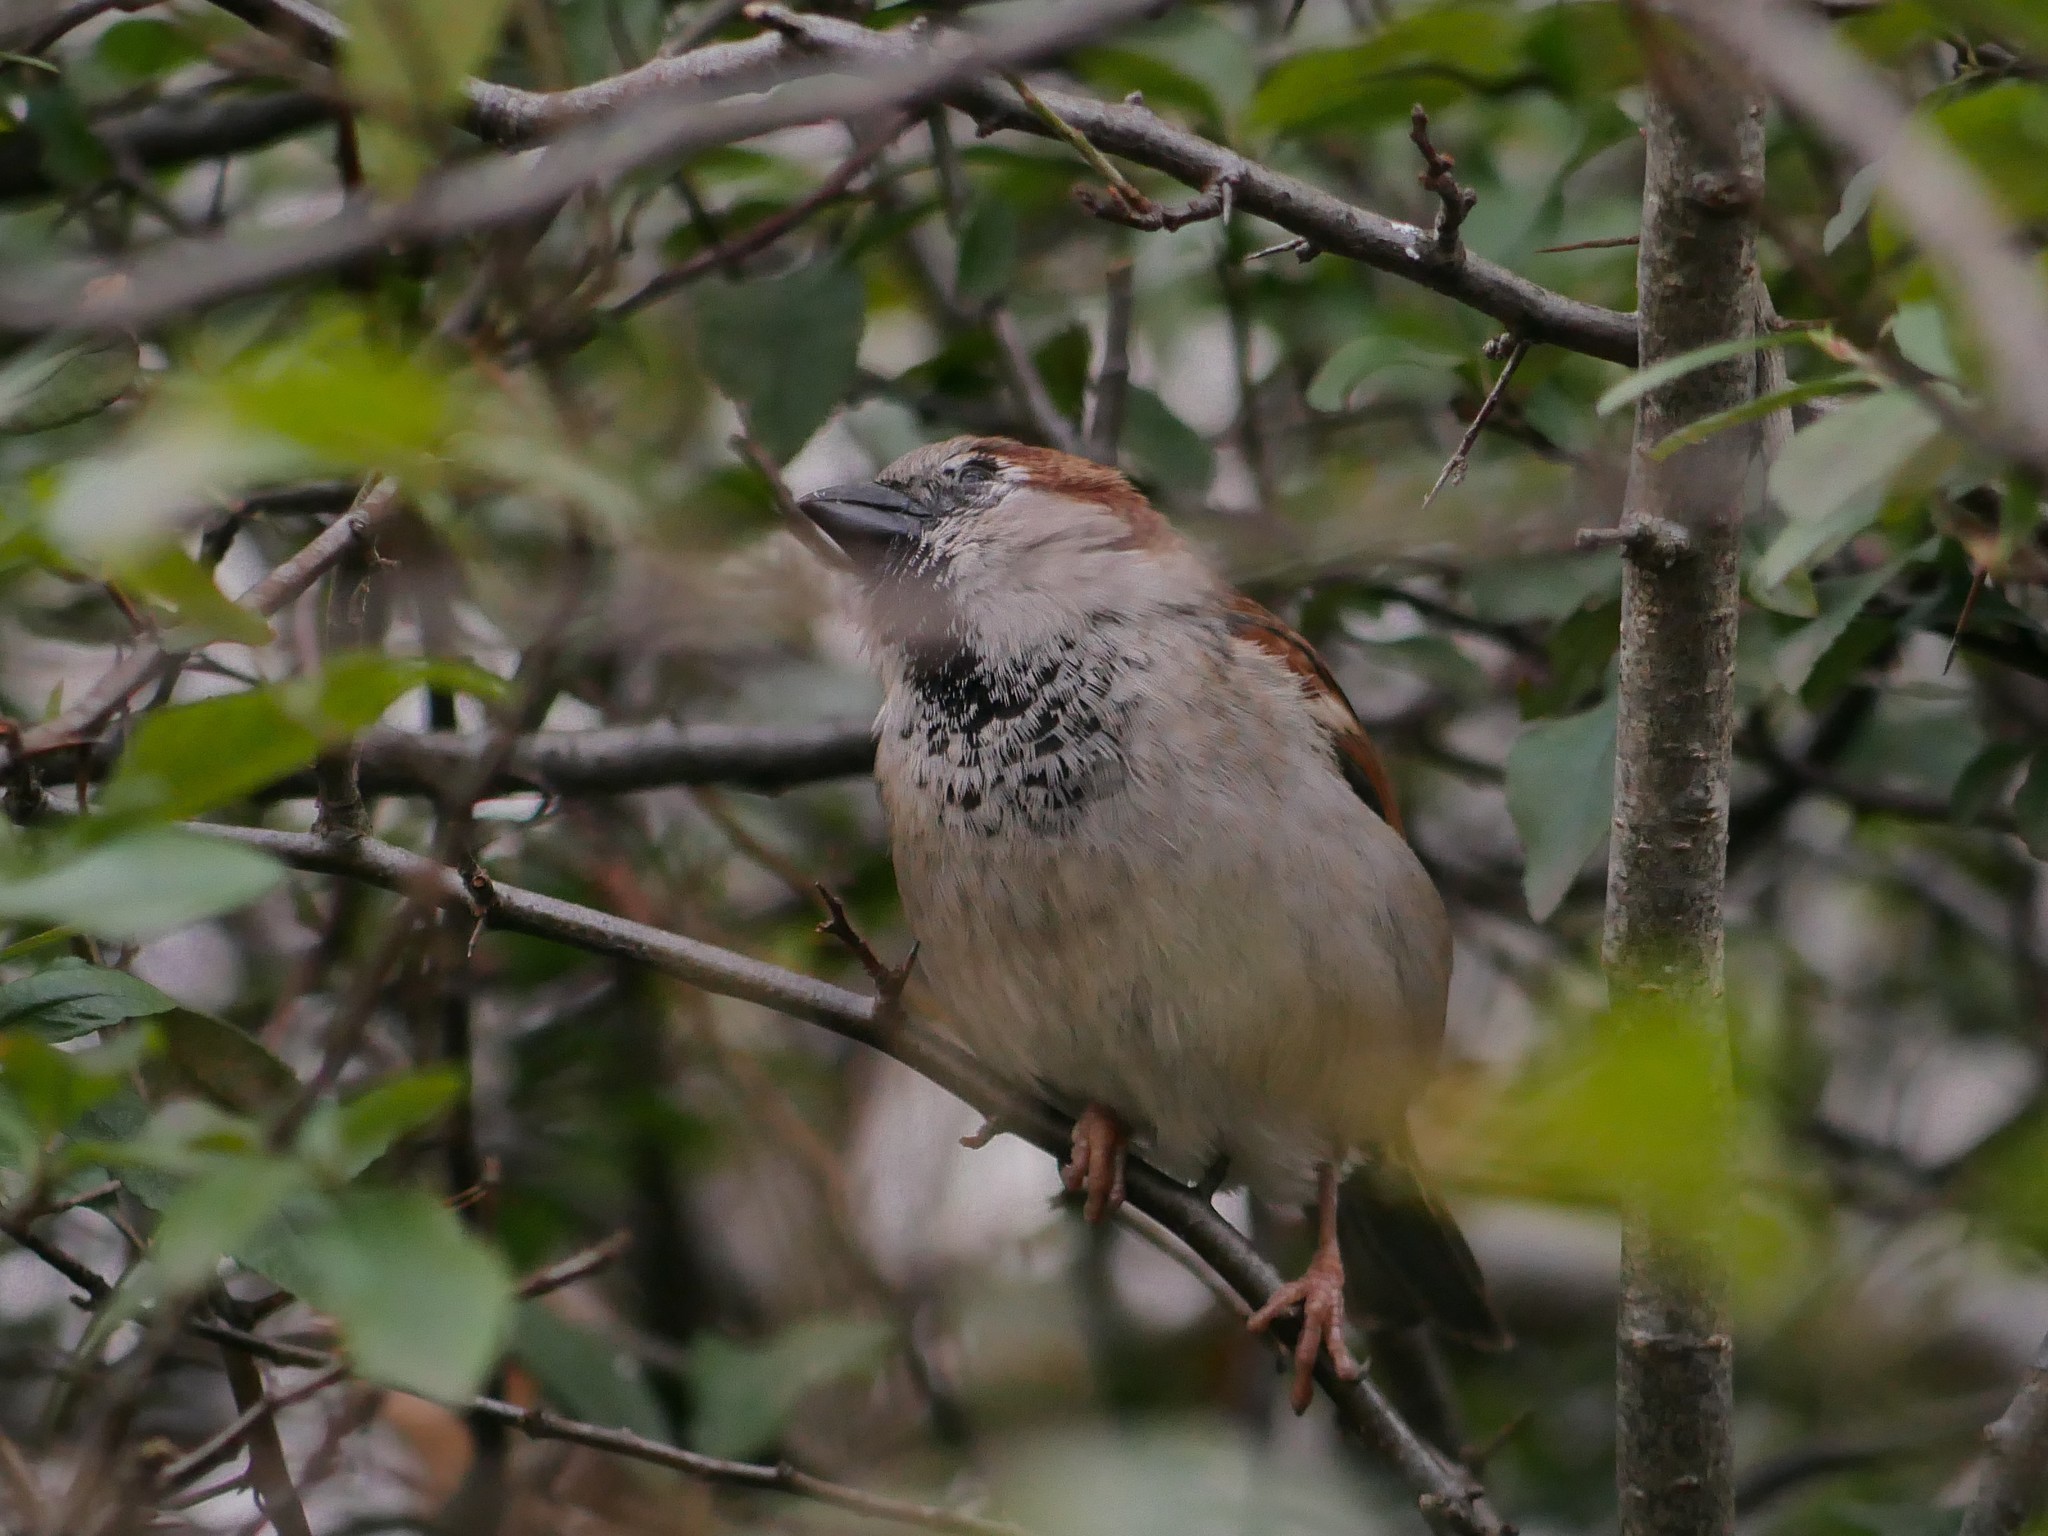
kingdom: Animalia
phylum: Chordata
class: Aves
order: Passeriformes
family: Passeridae
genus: Passer
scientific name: Passer domesticus
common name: House sparrow
